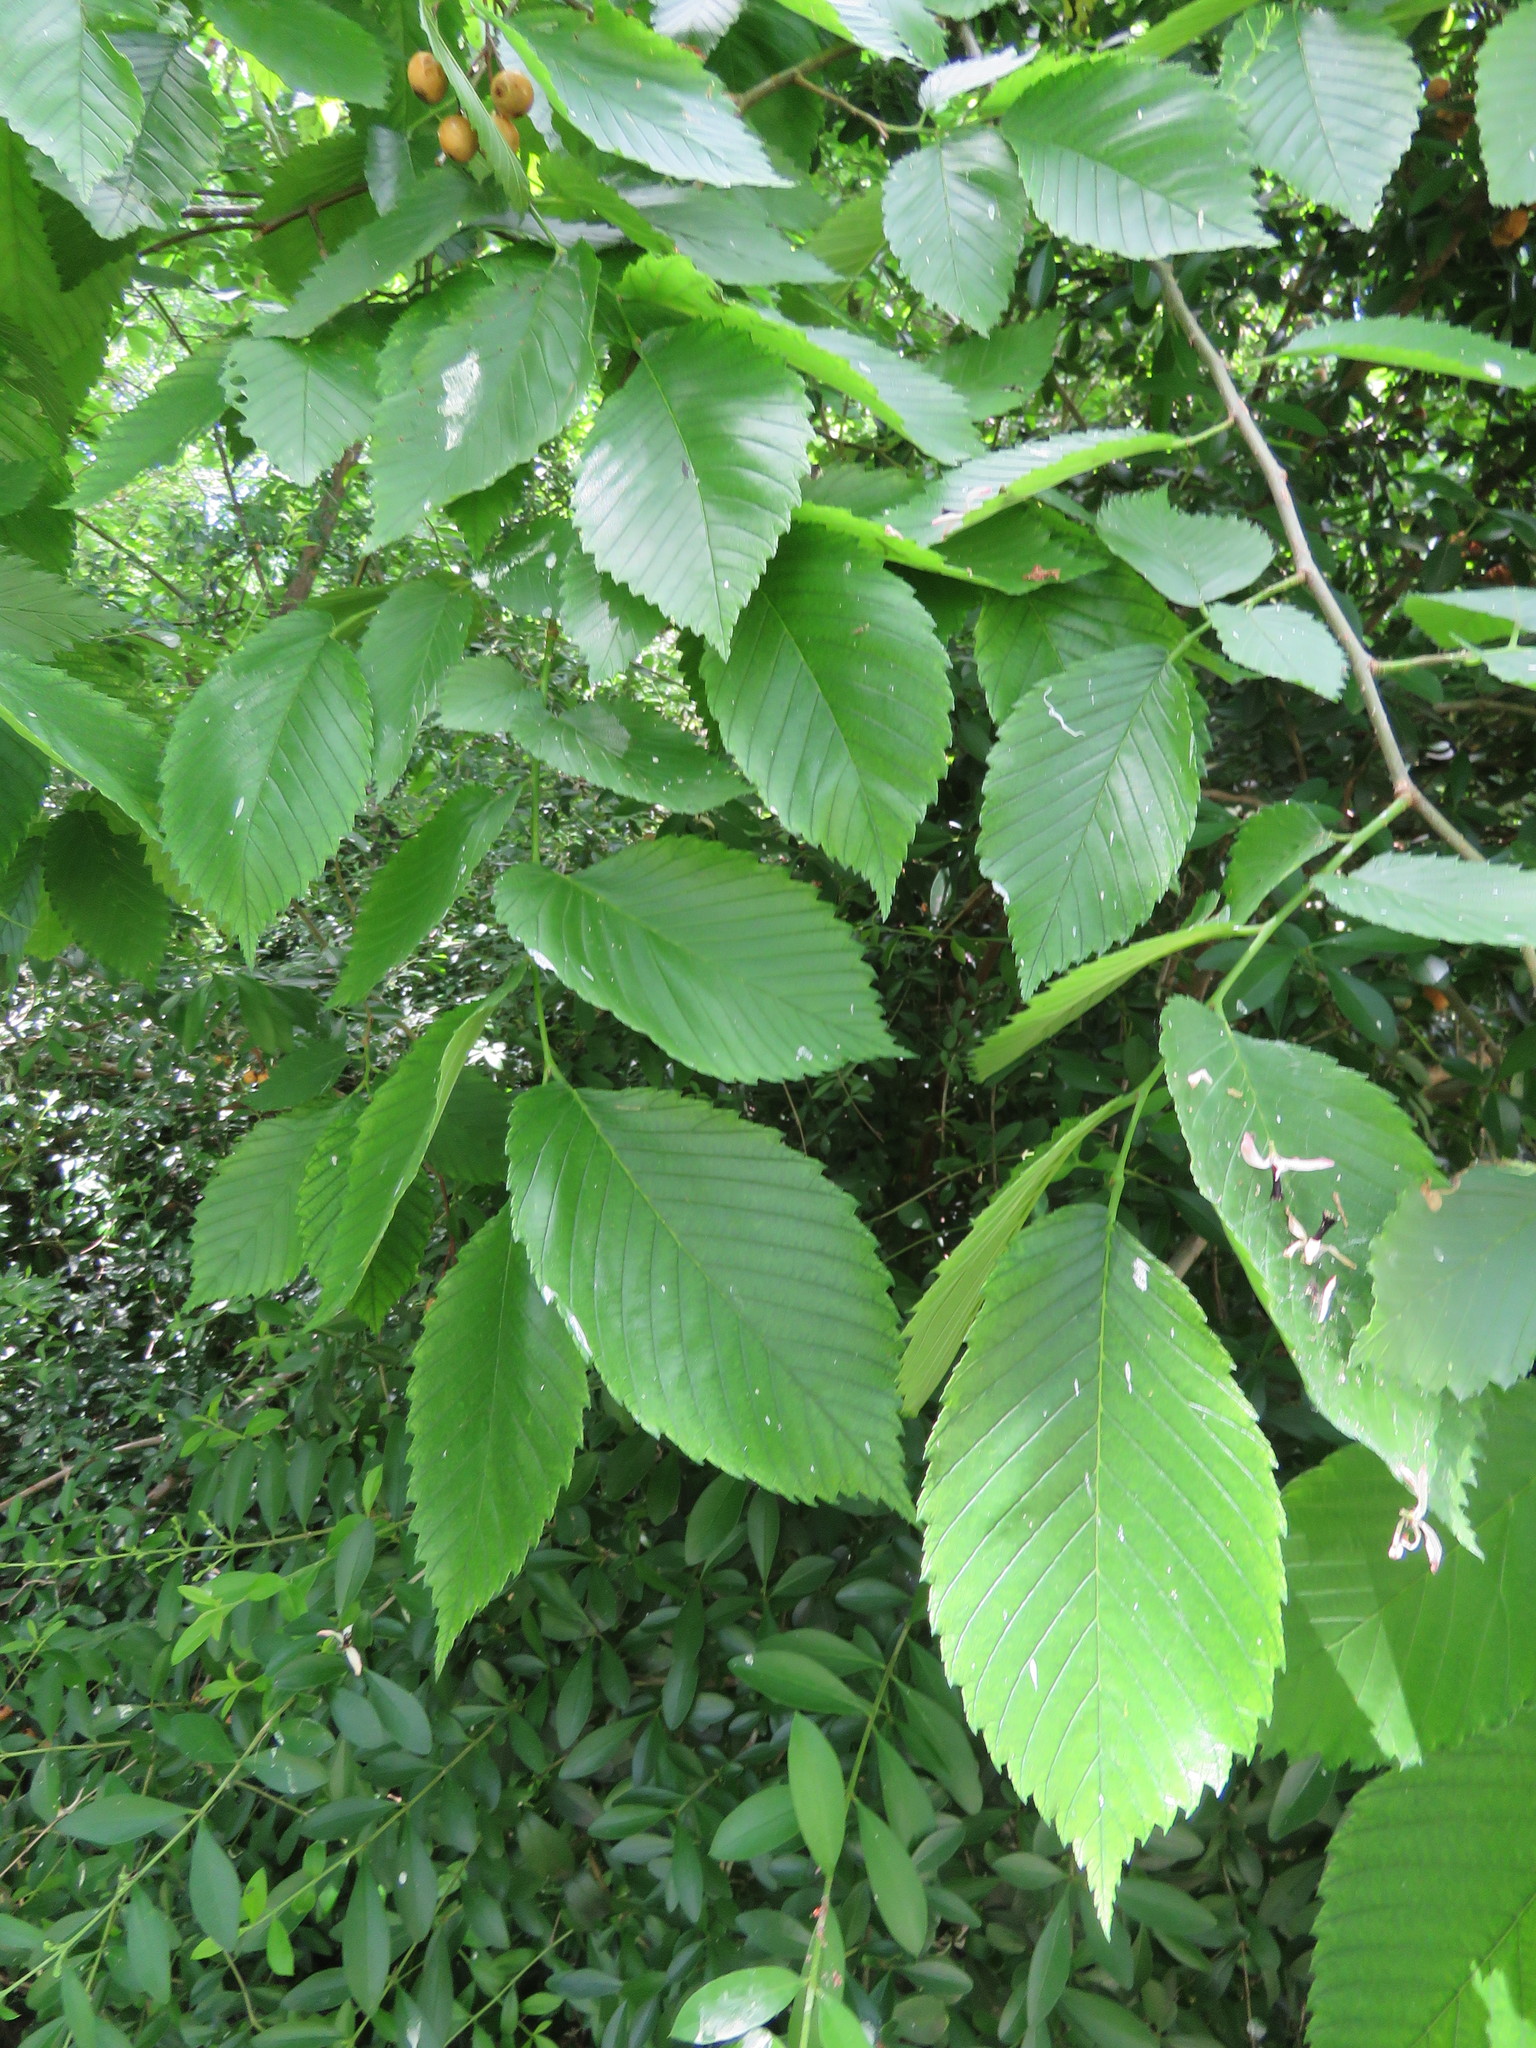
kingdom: Plantae
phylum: Tracheophyta
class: Magnoliopsida
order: Rosales
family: Ulmaceae
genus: Ulmus
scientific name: Ulmus americana
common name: American elm
